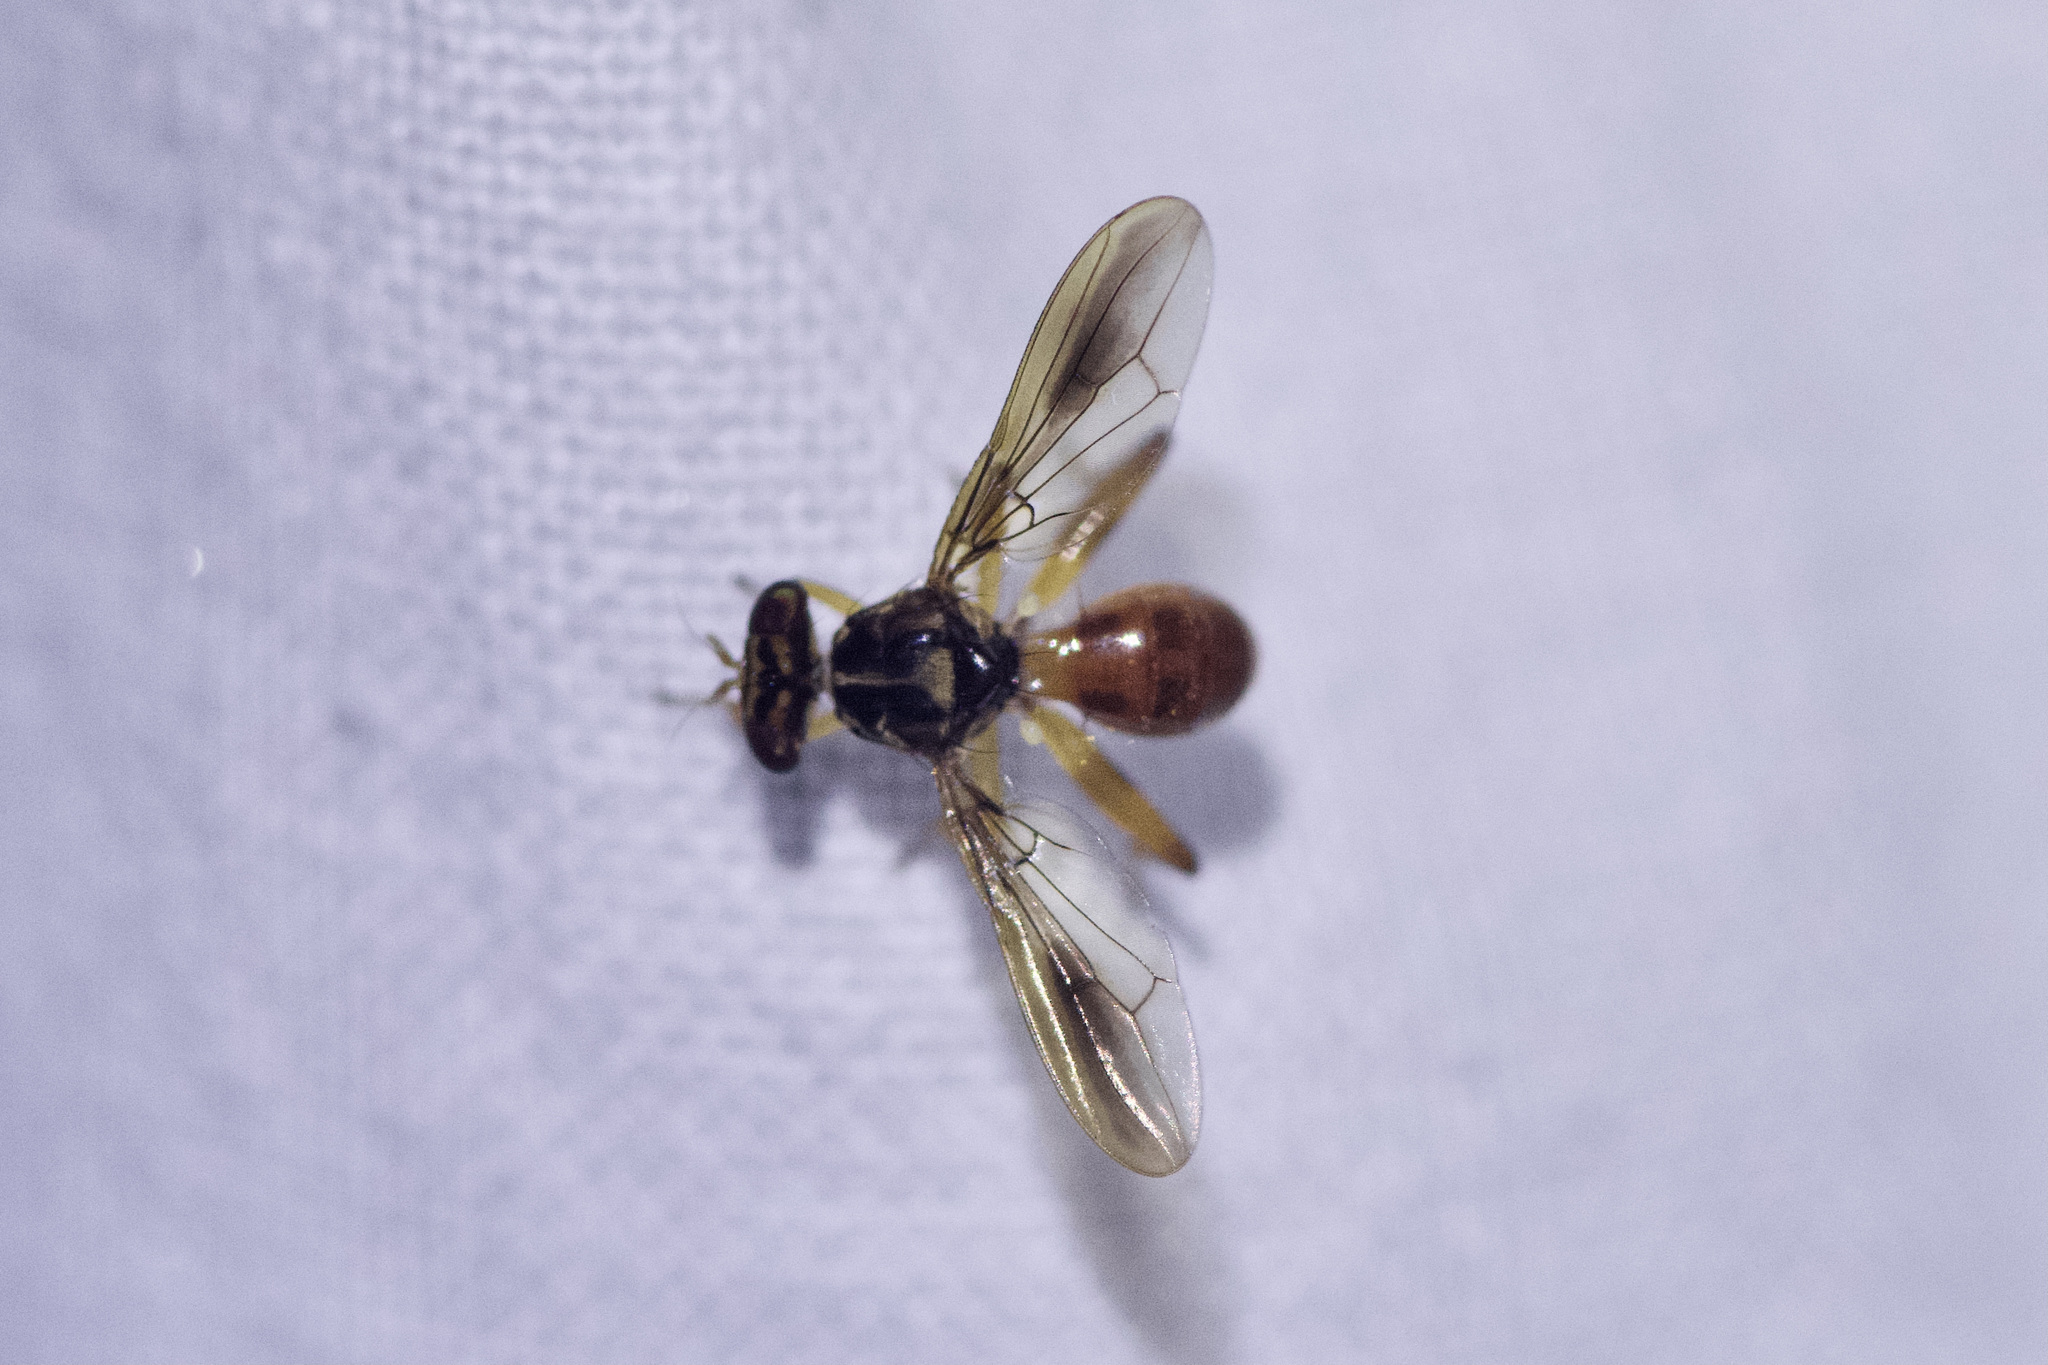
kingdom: Animalia
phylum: Arthropoda
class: Insecta
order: Diptera
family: Richardiidae
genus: Richardia
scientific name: Richardia telescopica
